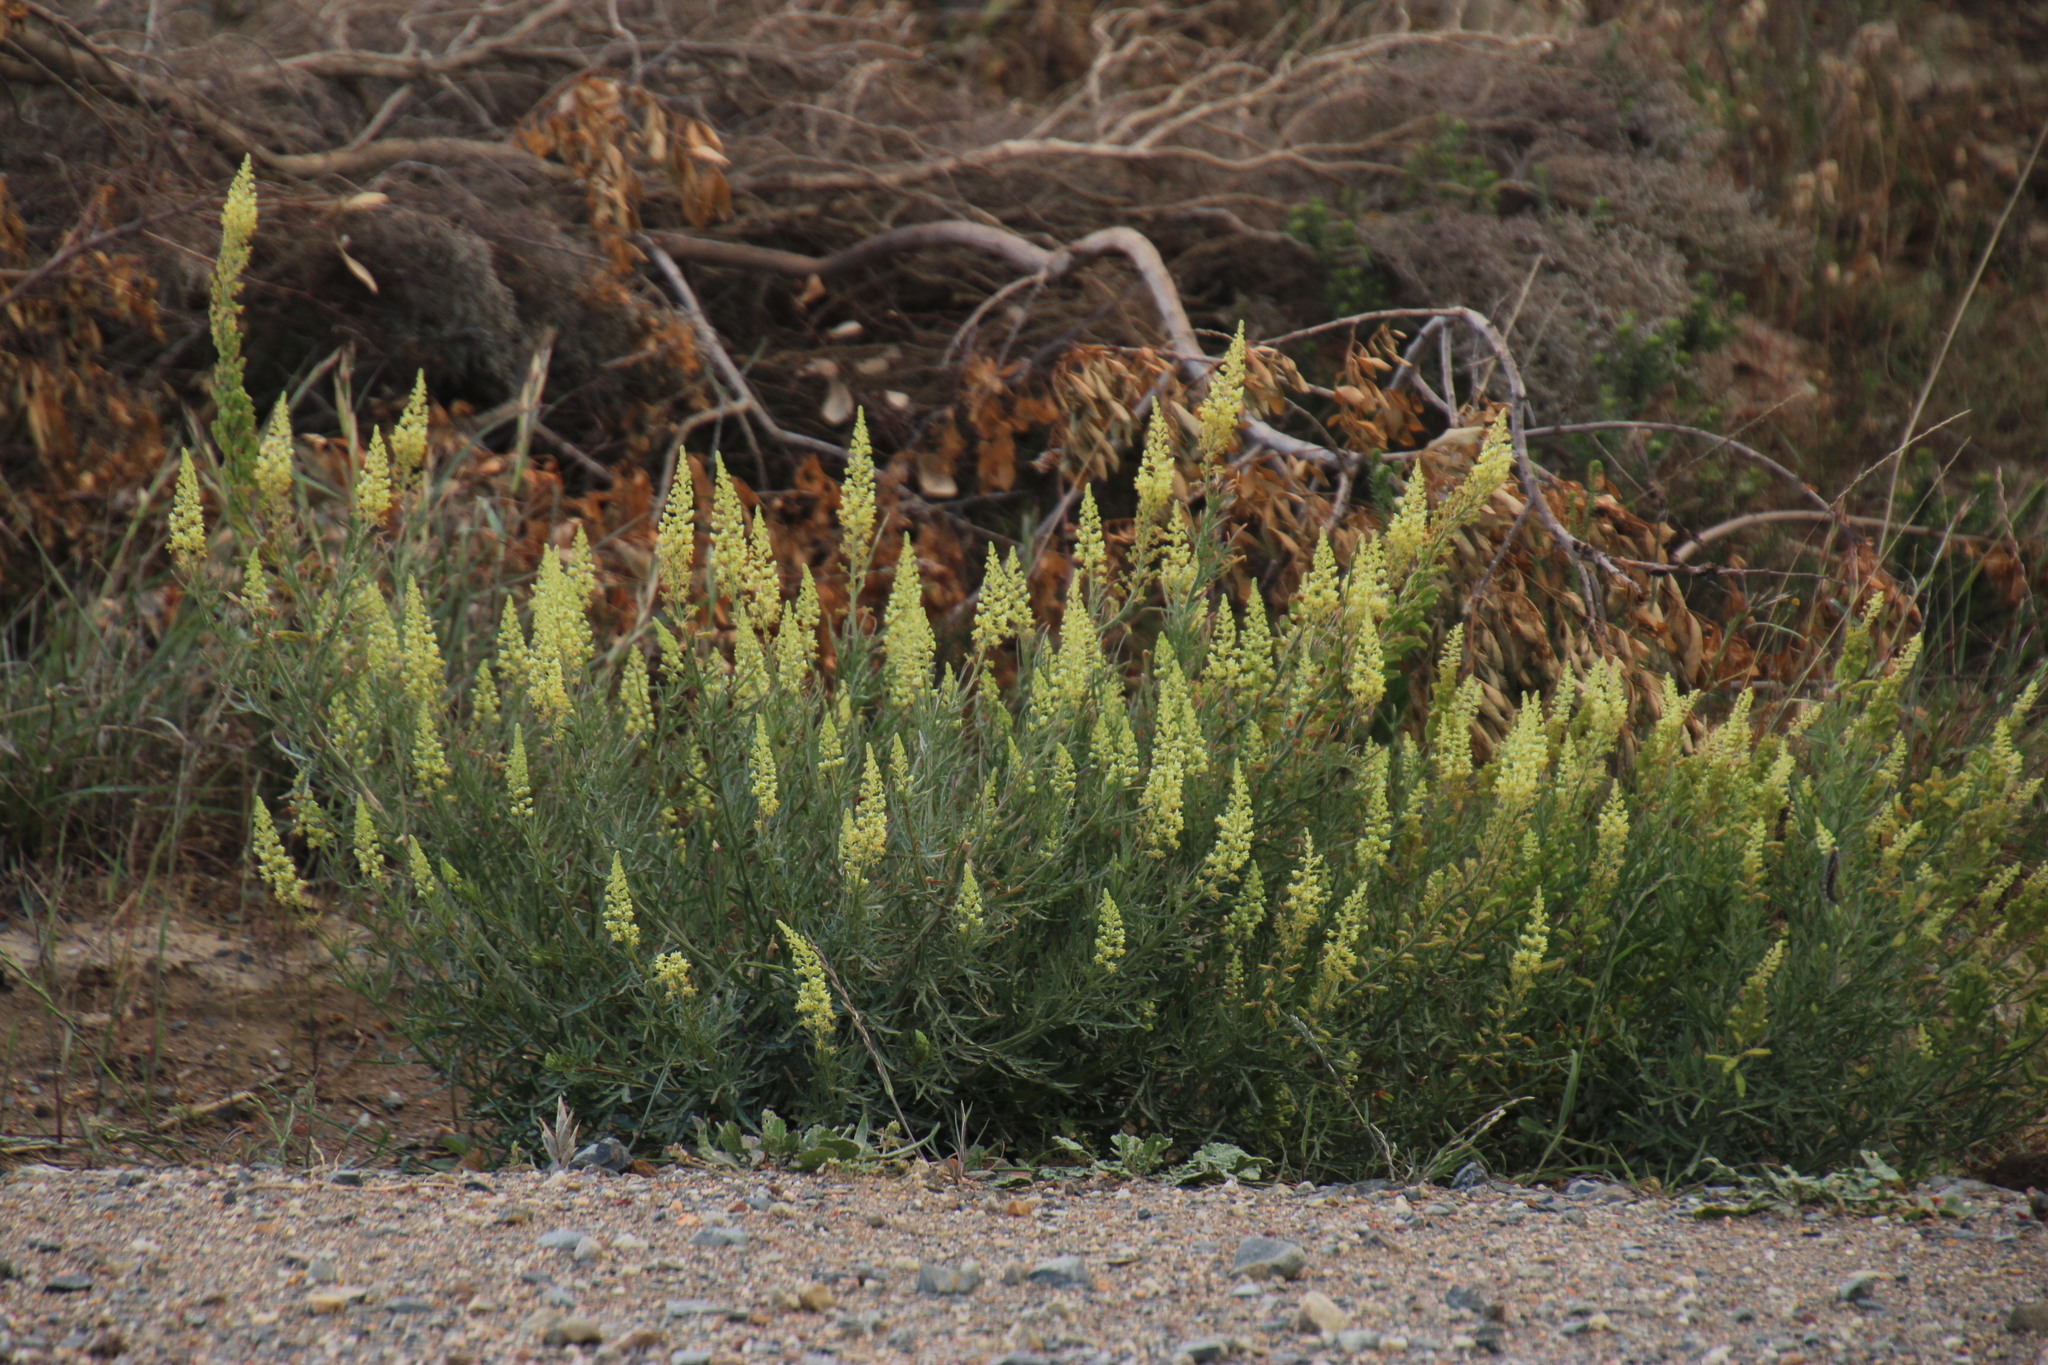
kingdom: Plantae
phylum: Tracheophyta
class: Magnoliopsida
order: Brassicales
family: Resedaceae
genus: Reseda
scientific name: Reseda lutea
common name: Wild mignonette
